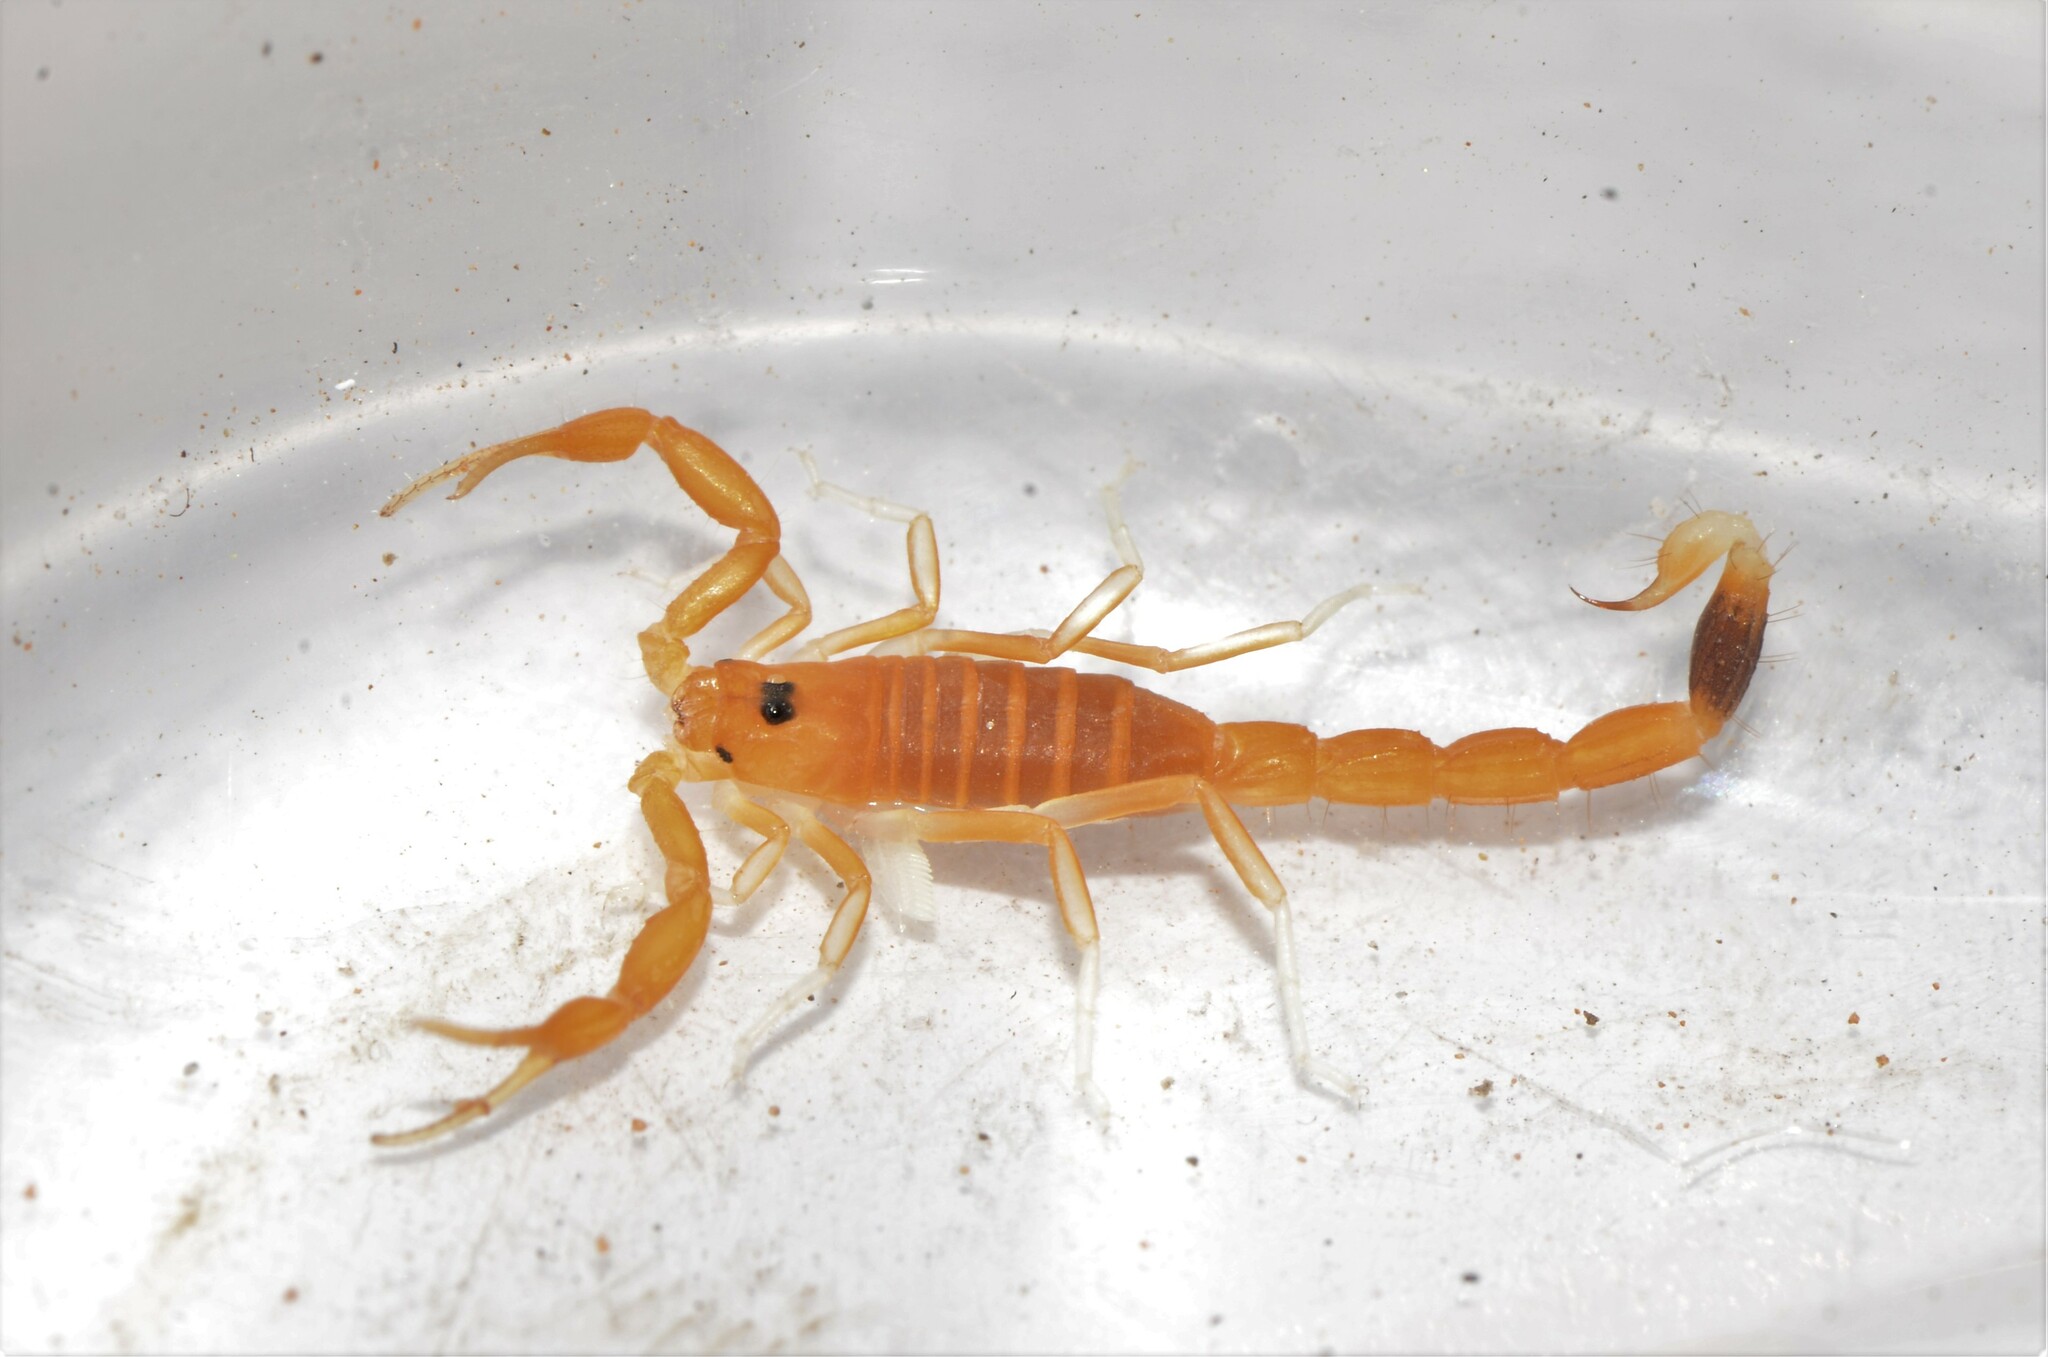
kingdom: Animalia
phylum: Arthropoda
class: Arachnida
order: Scorpiones
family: Buthidae
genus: Uroplectes
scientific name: Uroplectes gracilior
